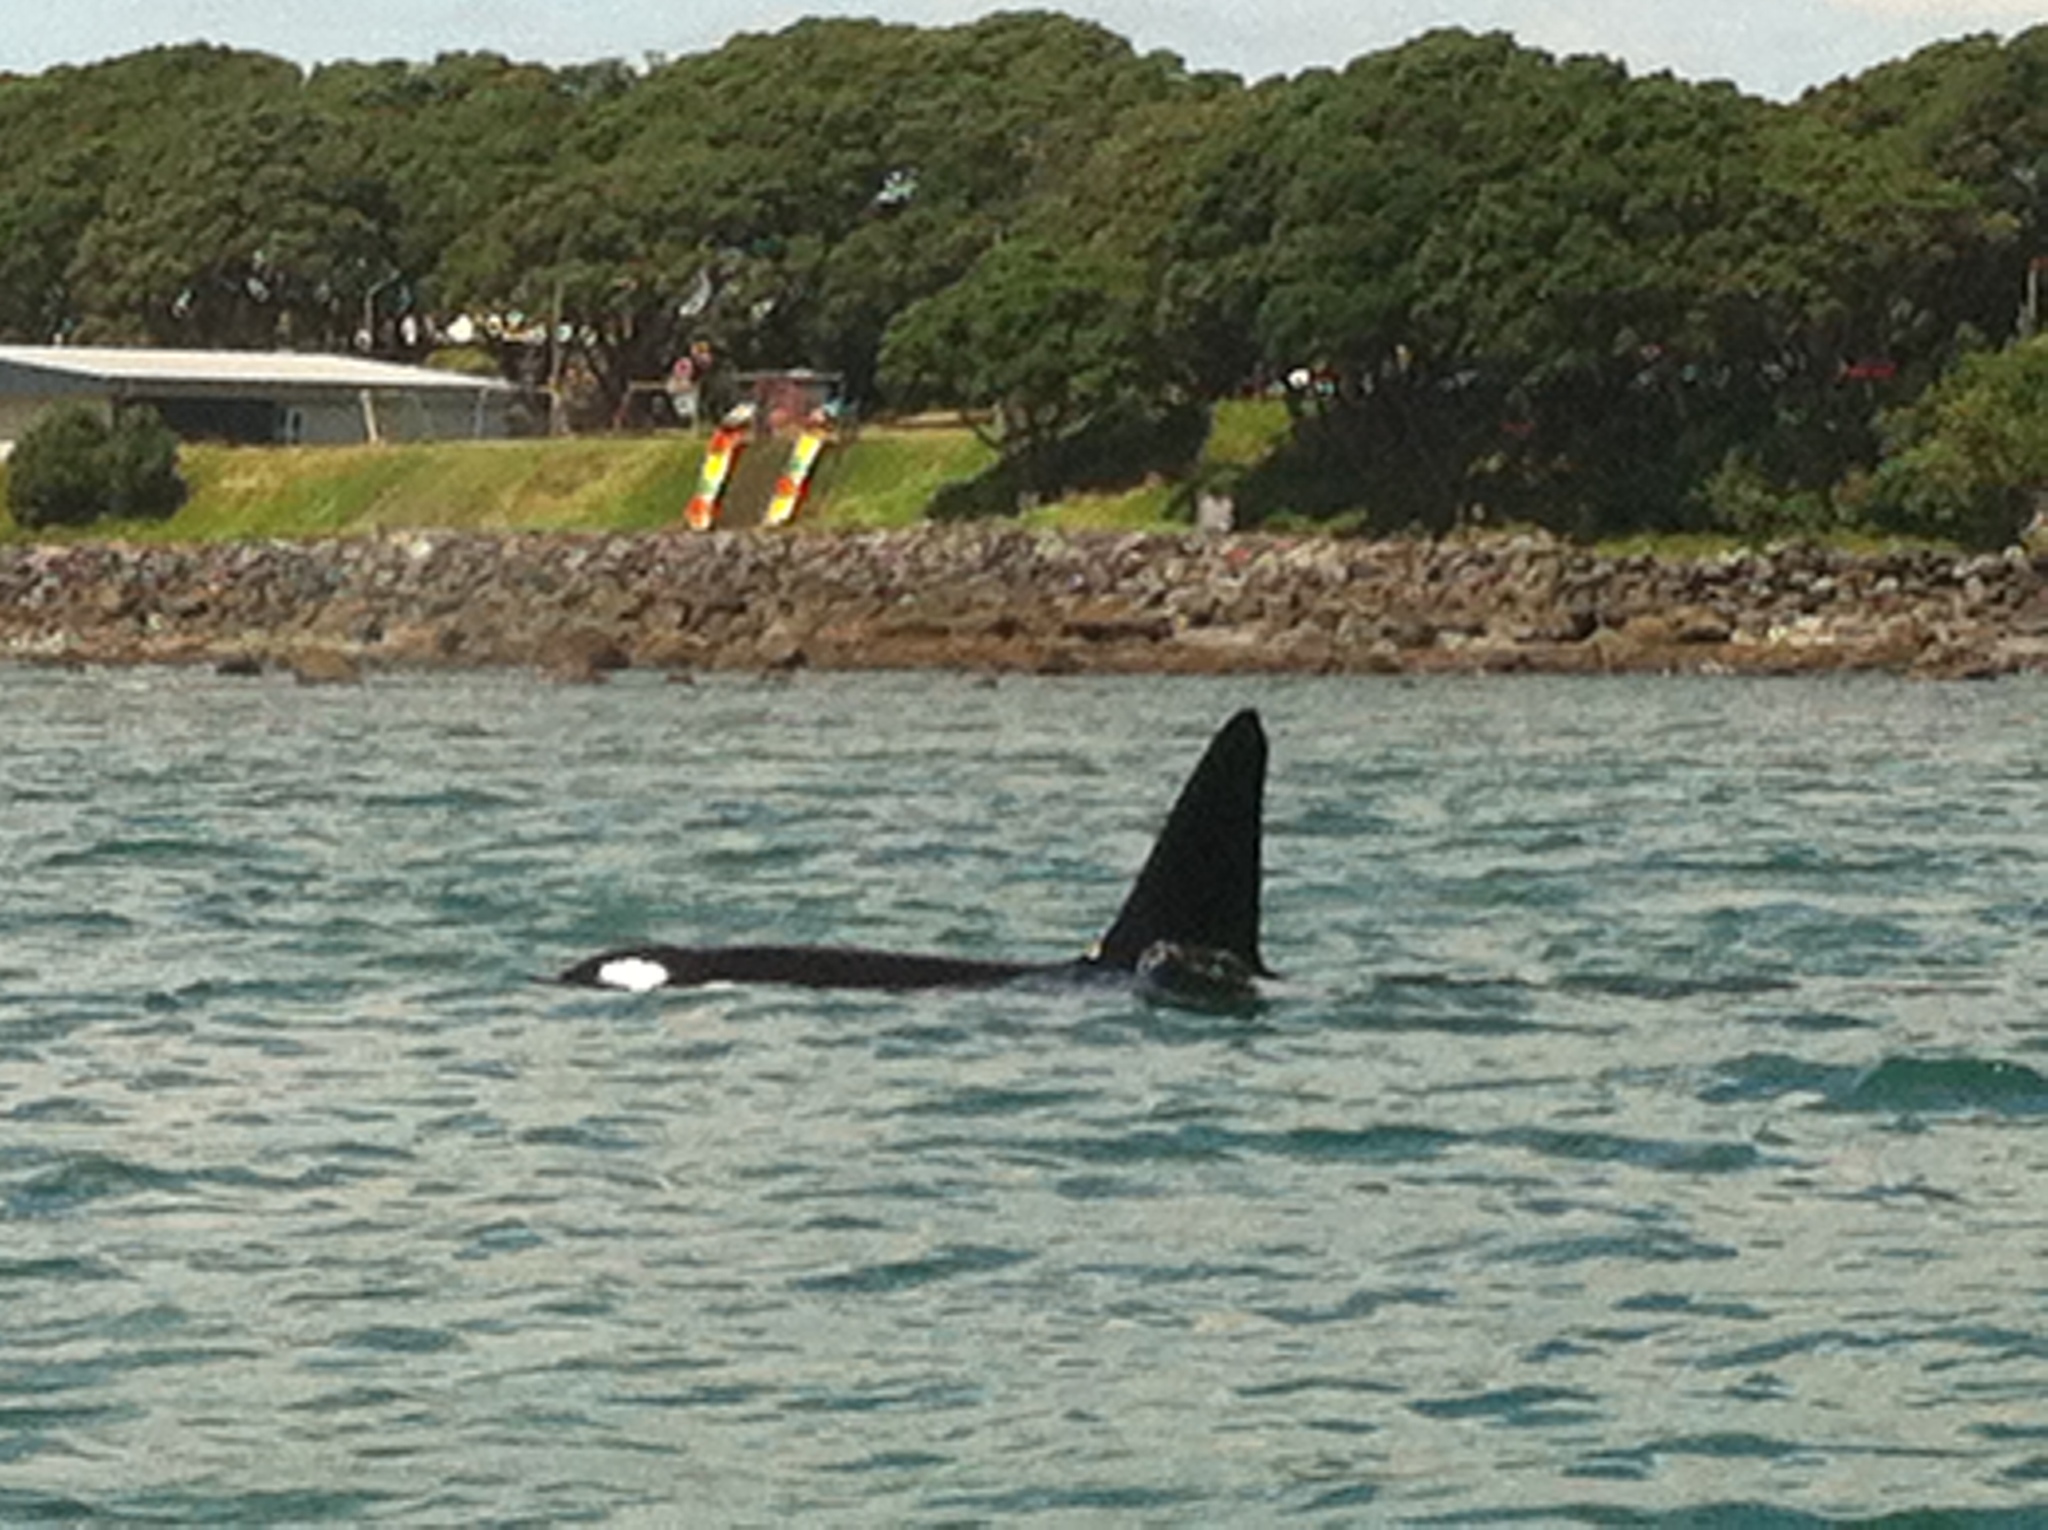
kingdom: Animalia
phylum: Chordata
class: Mammalia
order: Cetacea
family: Delphinidae
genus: Orcinus
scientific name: Orcinus orca
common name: Killer whale
